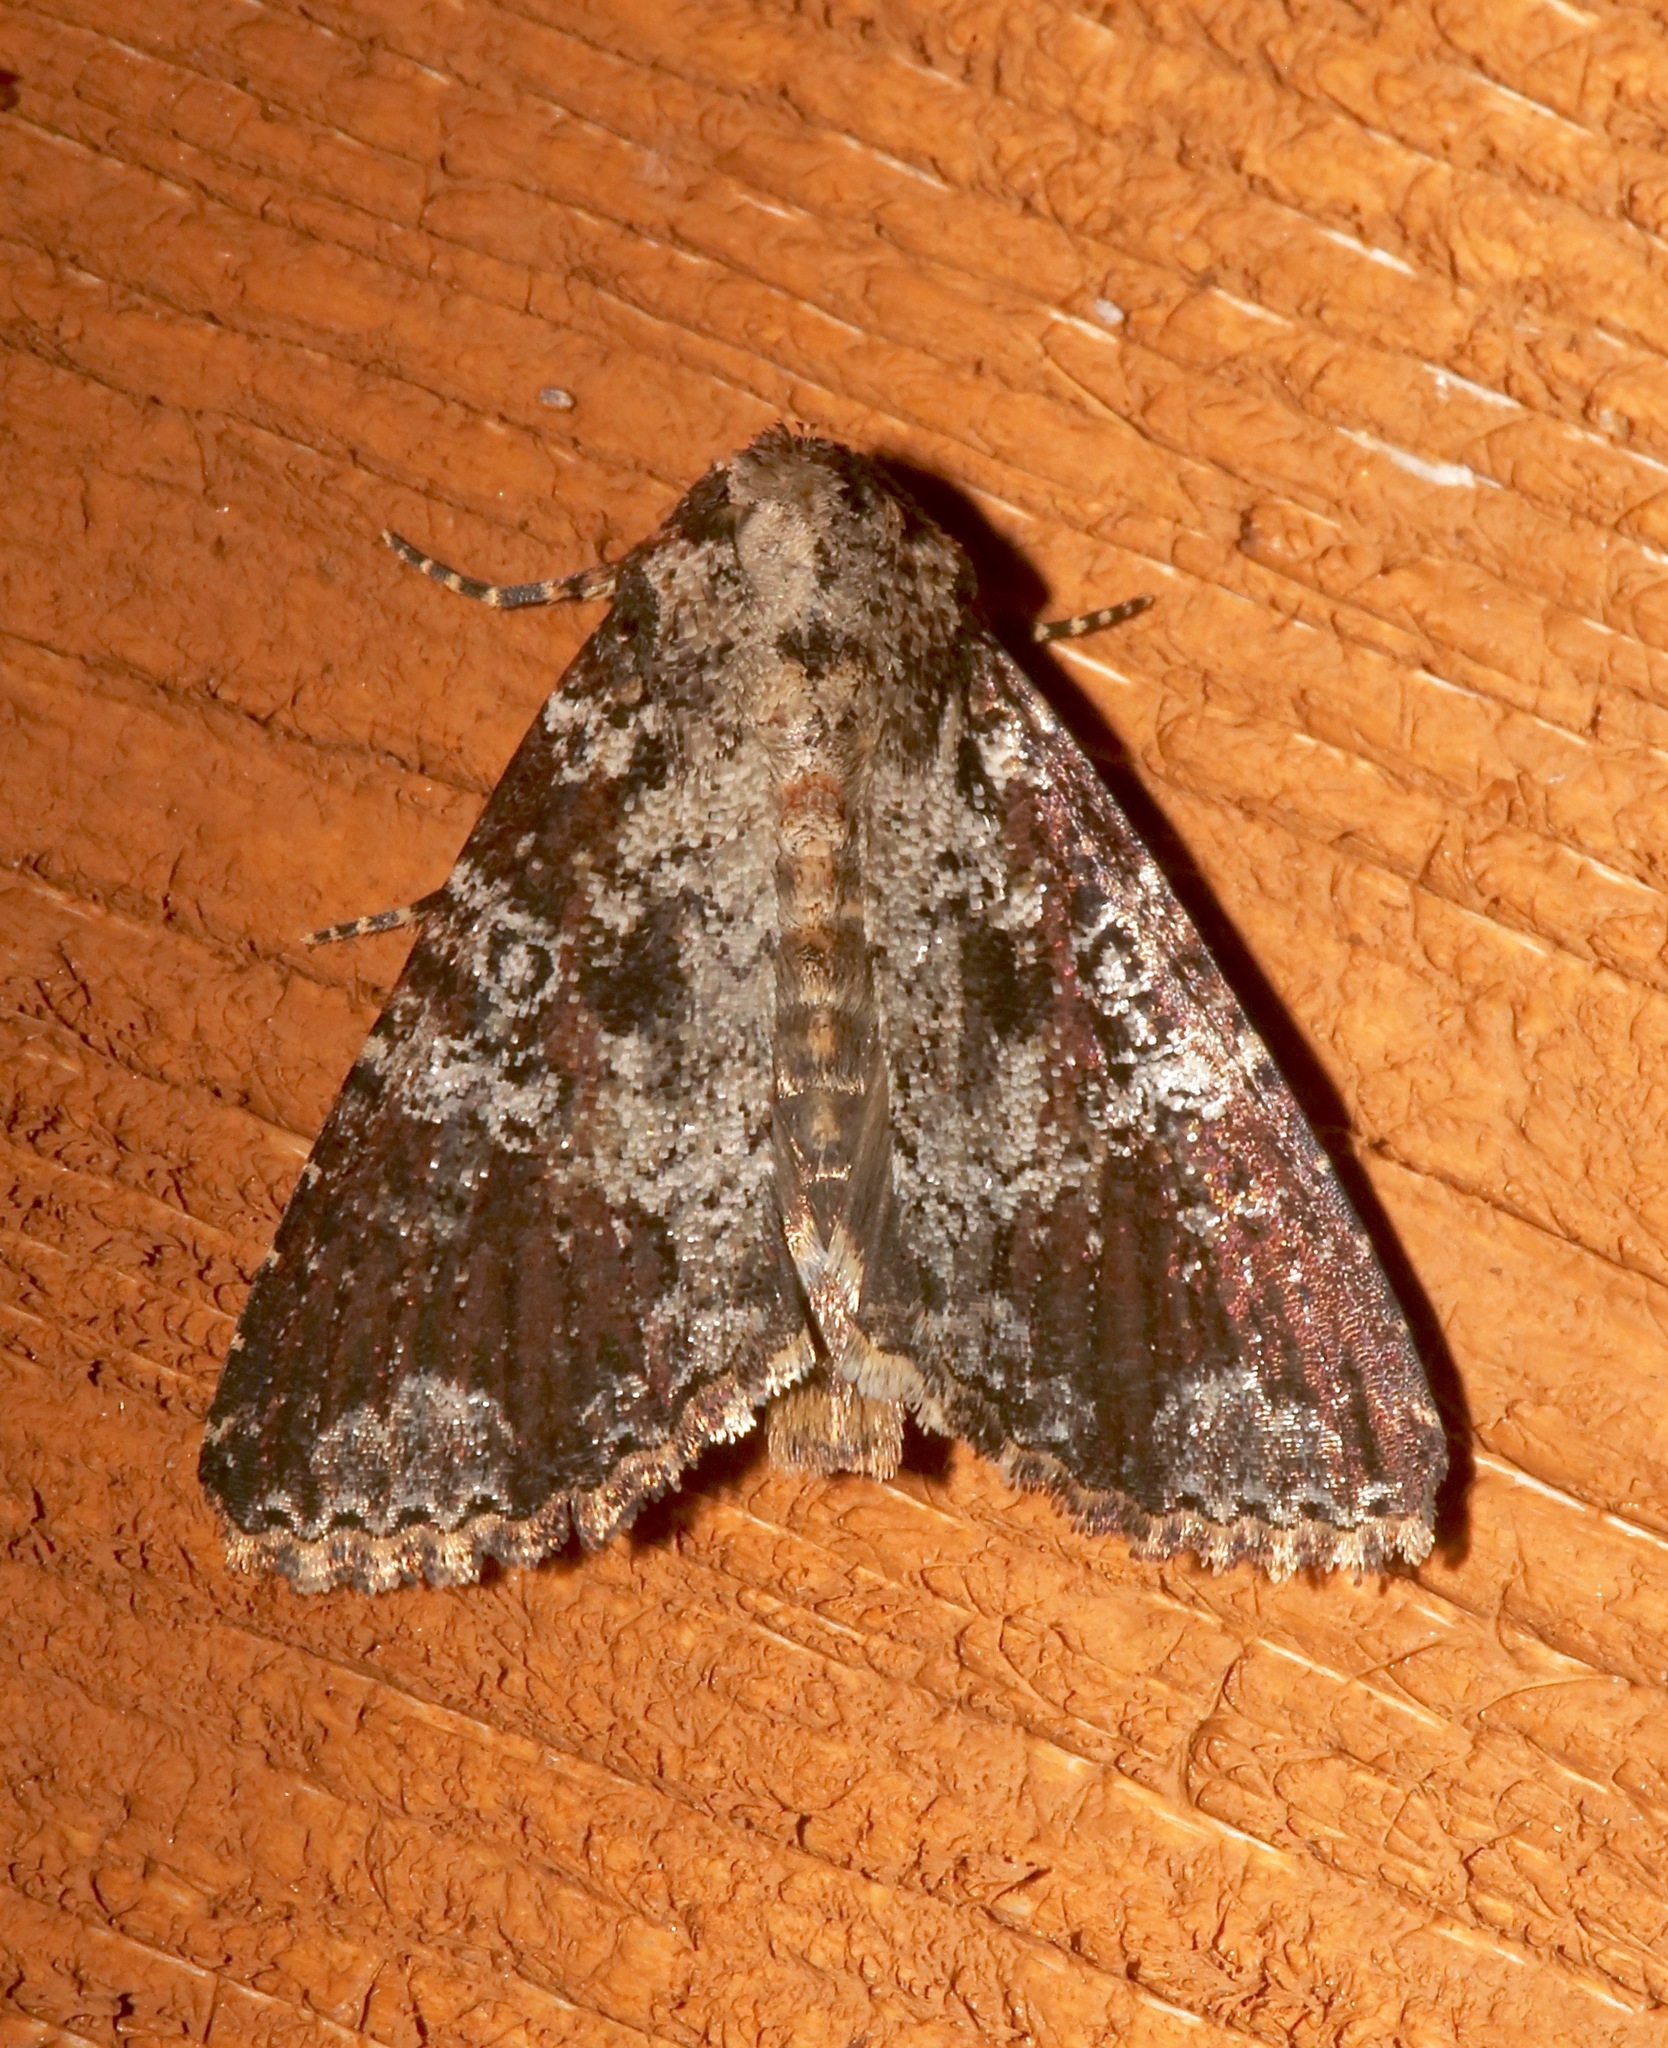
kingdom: Animalia
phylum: Arthropoda
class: Insecta
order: Lepidoptera
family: Noctuidae
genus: Condica
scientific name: Condica confederata
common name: The confederate
